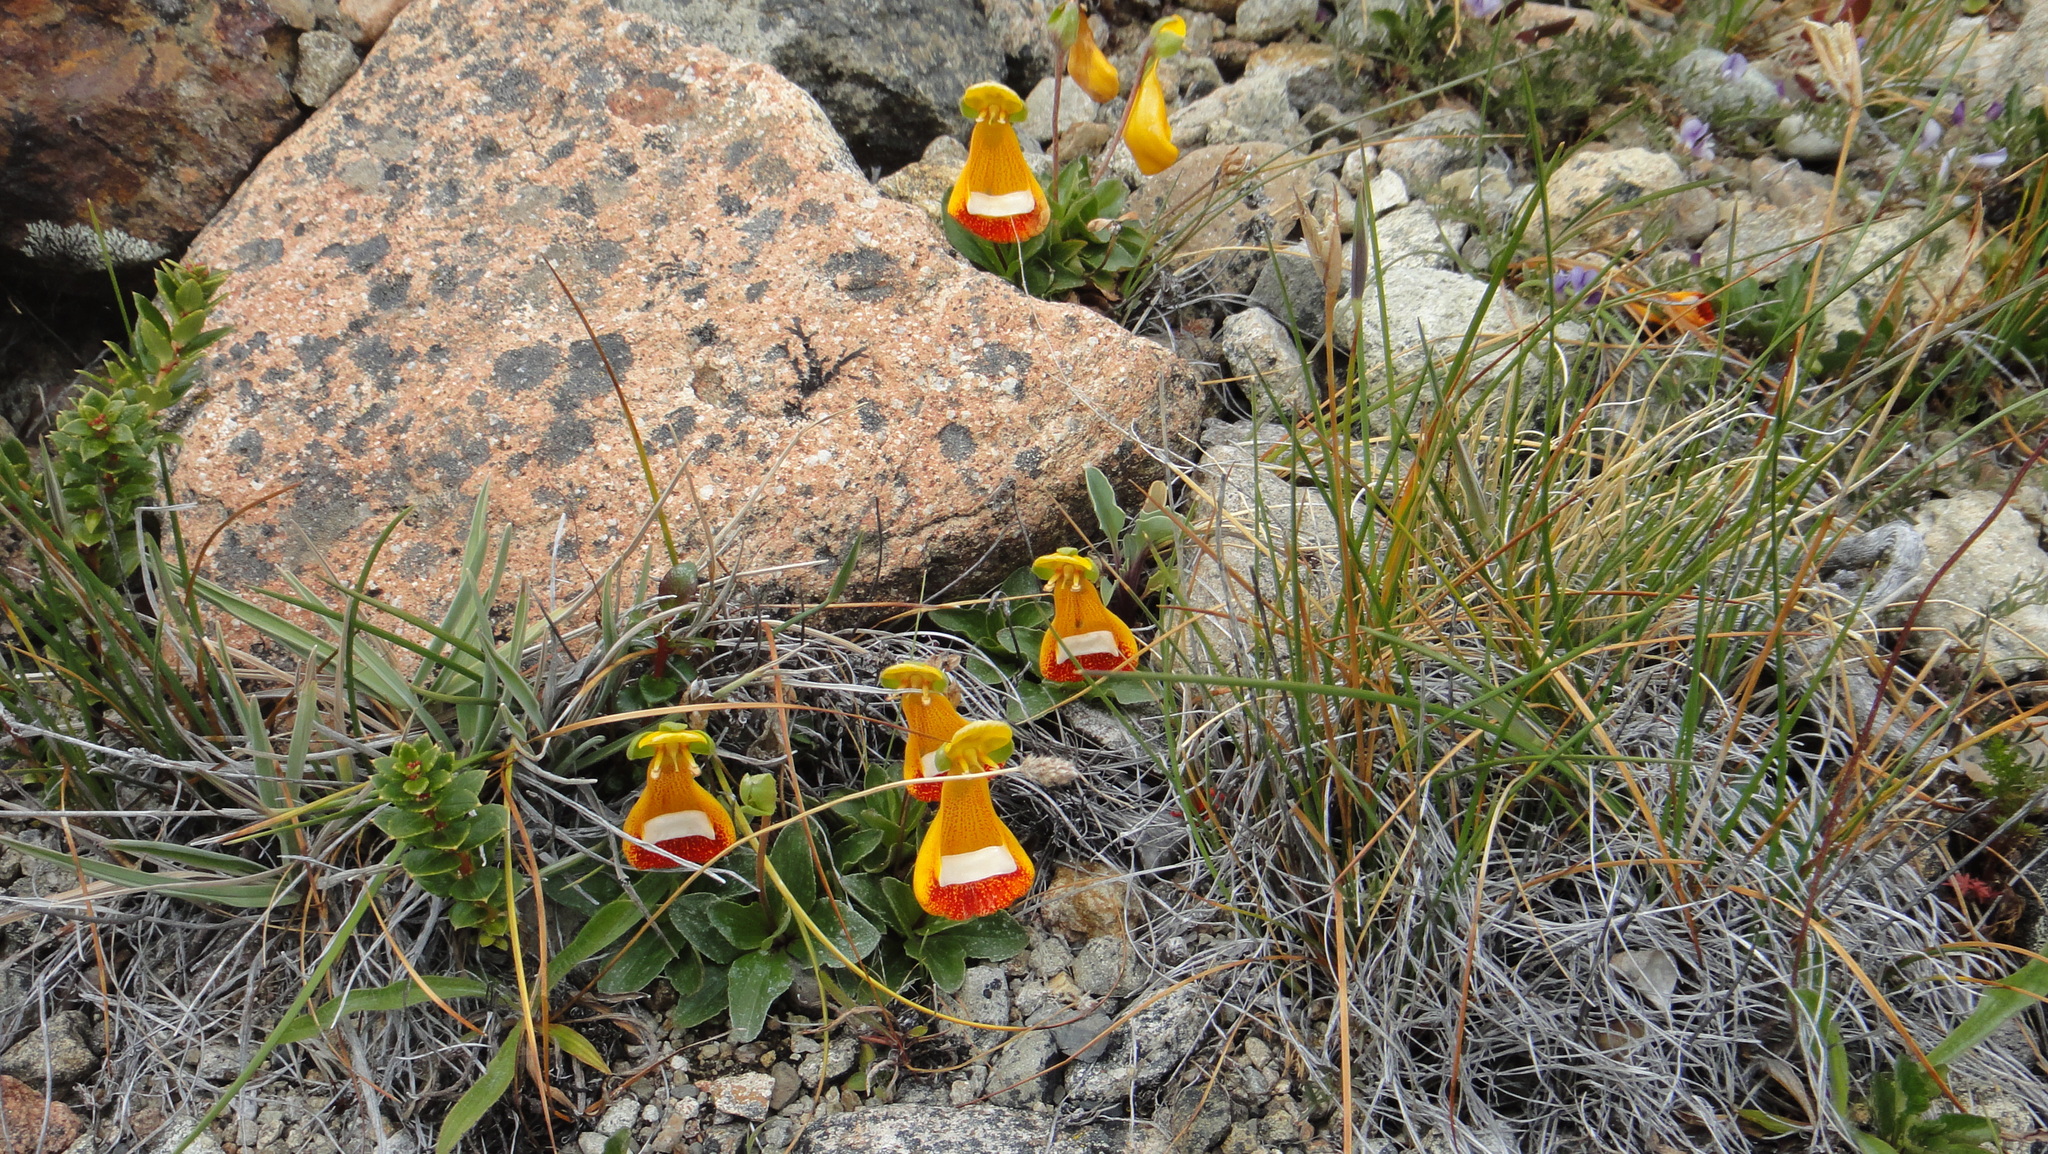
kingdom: Plantae
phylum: Tracheophyta
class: Magnoliopsida
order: Lamiales
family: Calceolariaceae
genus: Calceolaria
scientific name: Calceolaria uniflora
